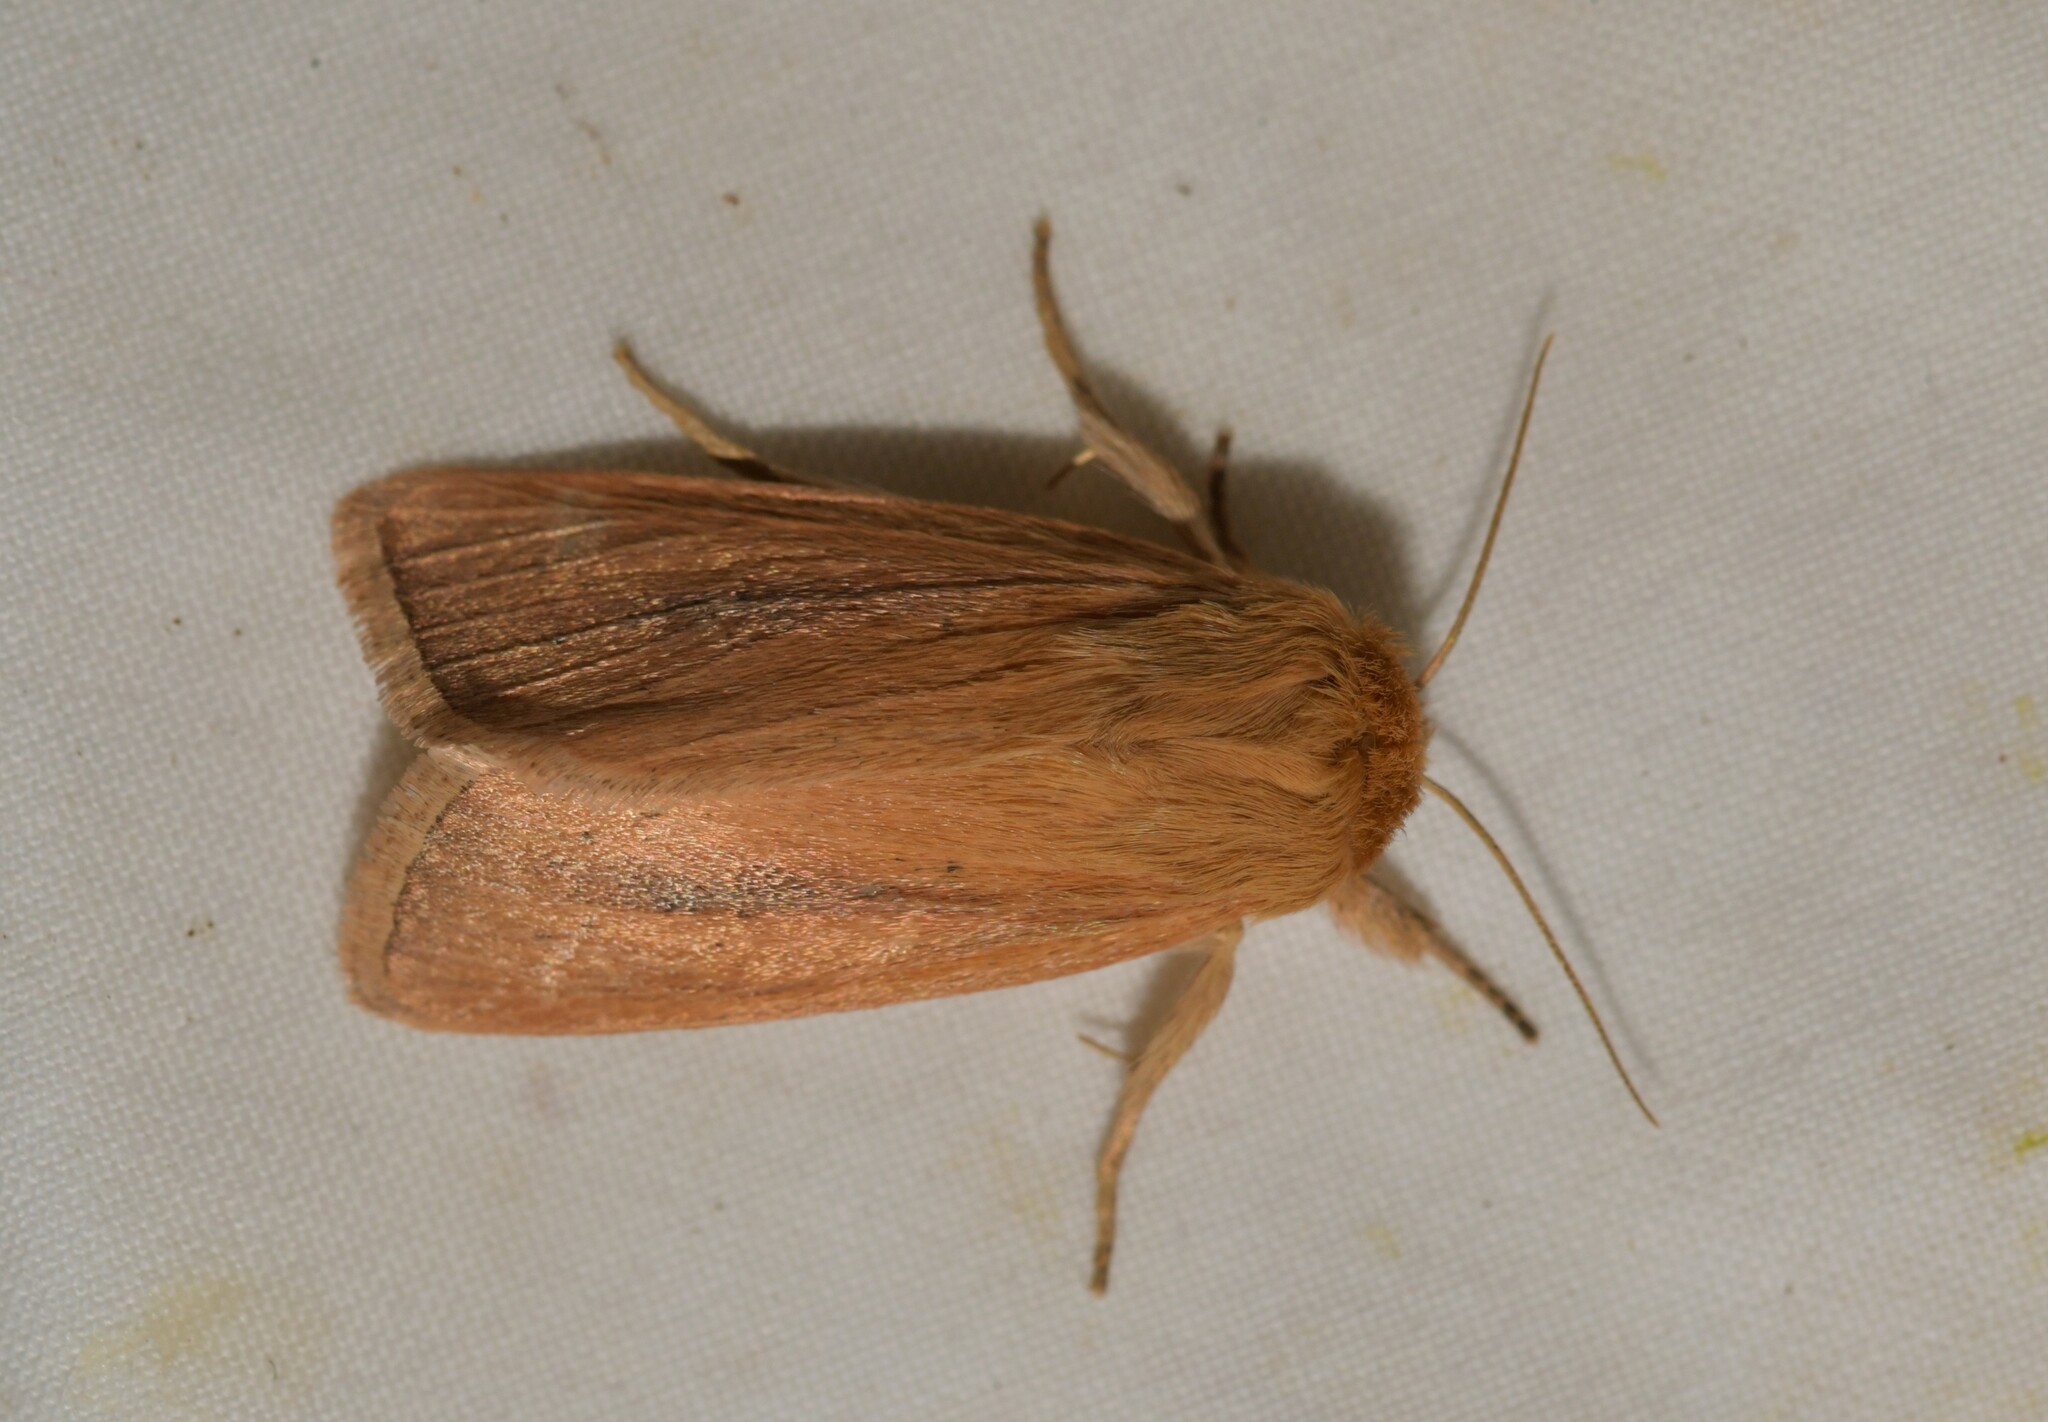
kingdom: Animalia
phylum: Arthropoda
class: Insecta
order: Lepidoptera
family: Noctuidae
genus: Sesamia
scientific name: Sesamia nonagrioides
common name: Pink stem borer
